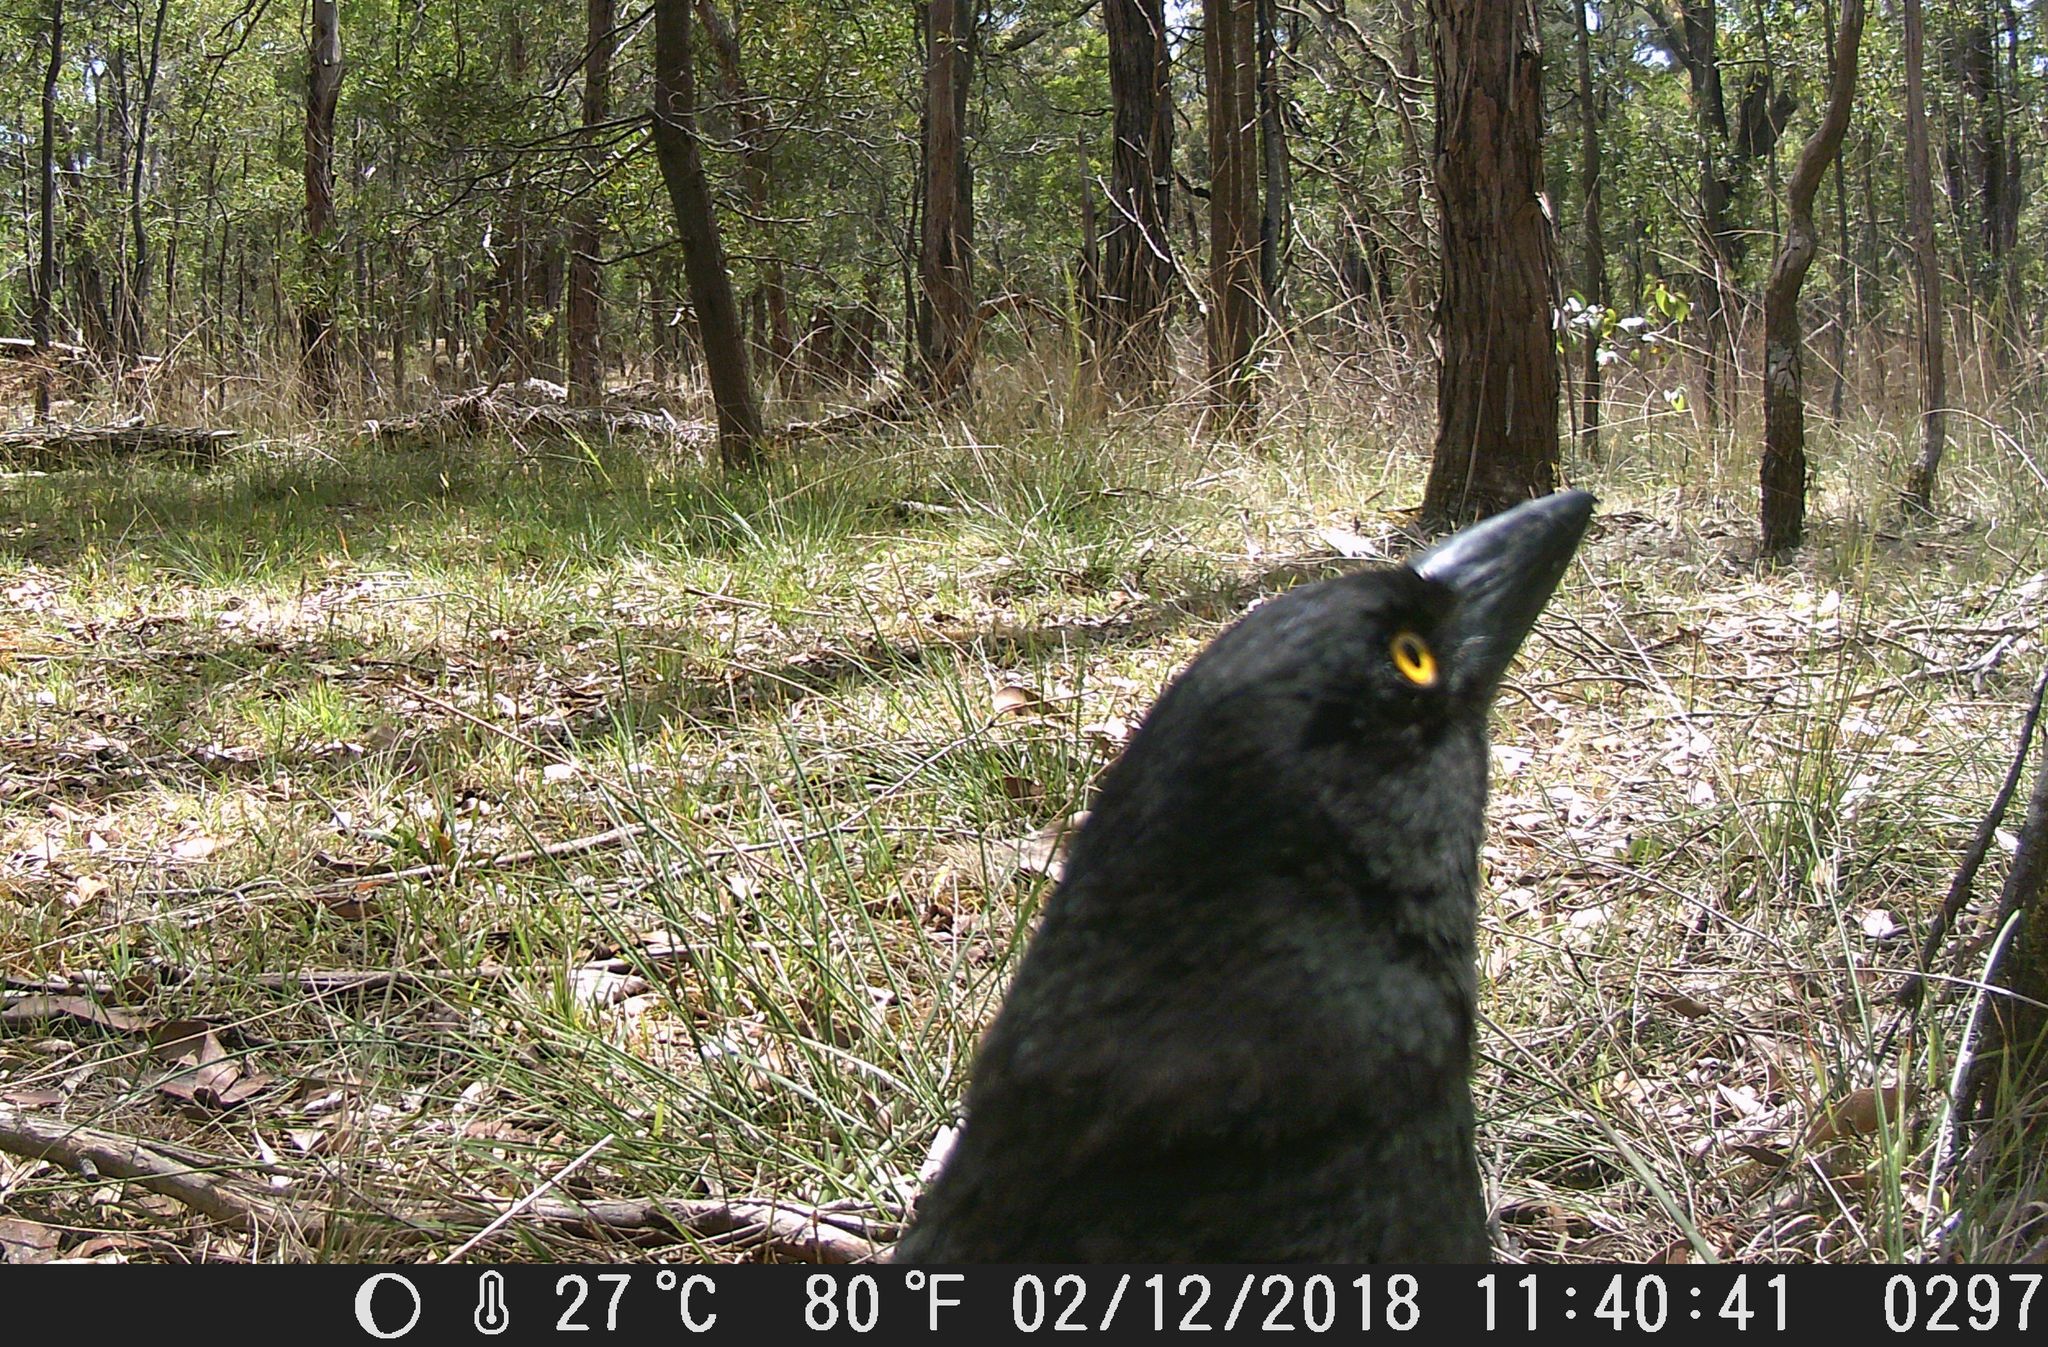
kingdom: Animalia
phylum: Chordata
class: Aves
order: Passeriformes
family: Cracticidae
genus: Strepera
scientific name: Strepera graculina
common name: Pied currawong
